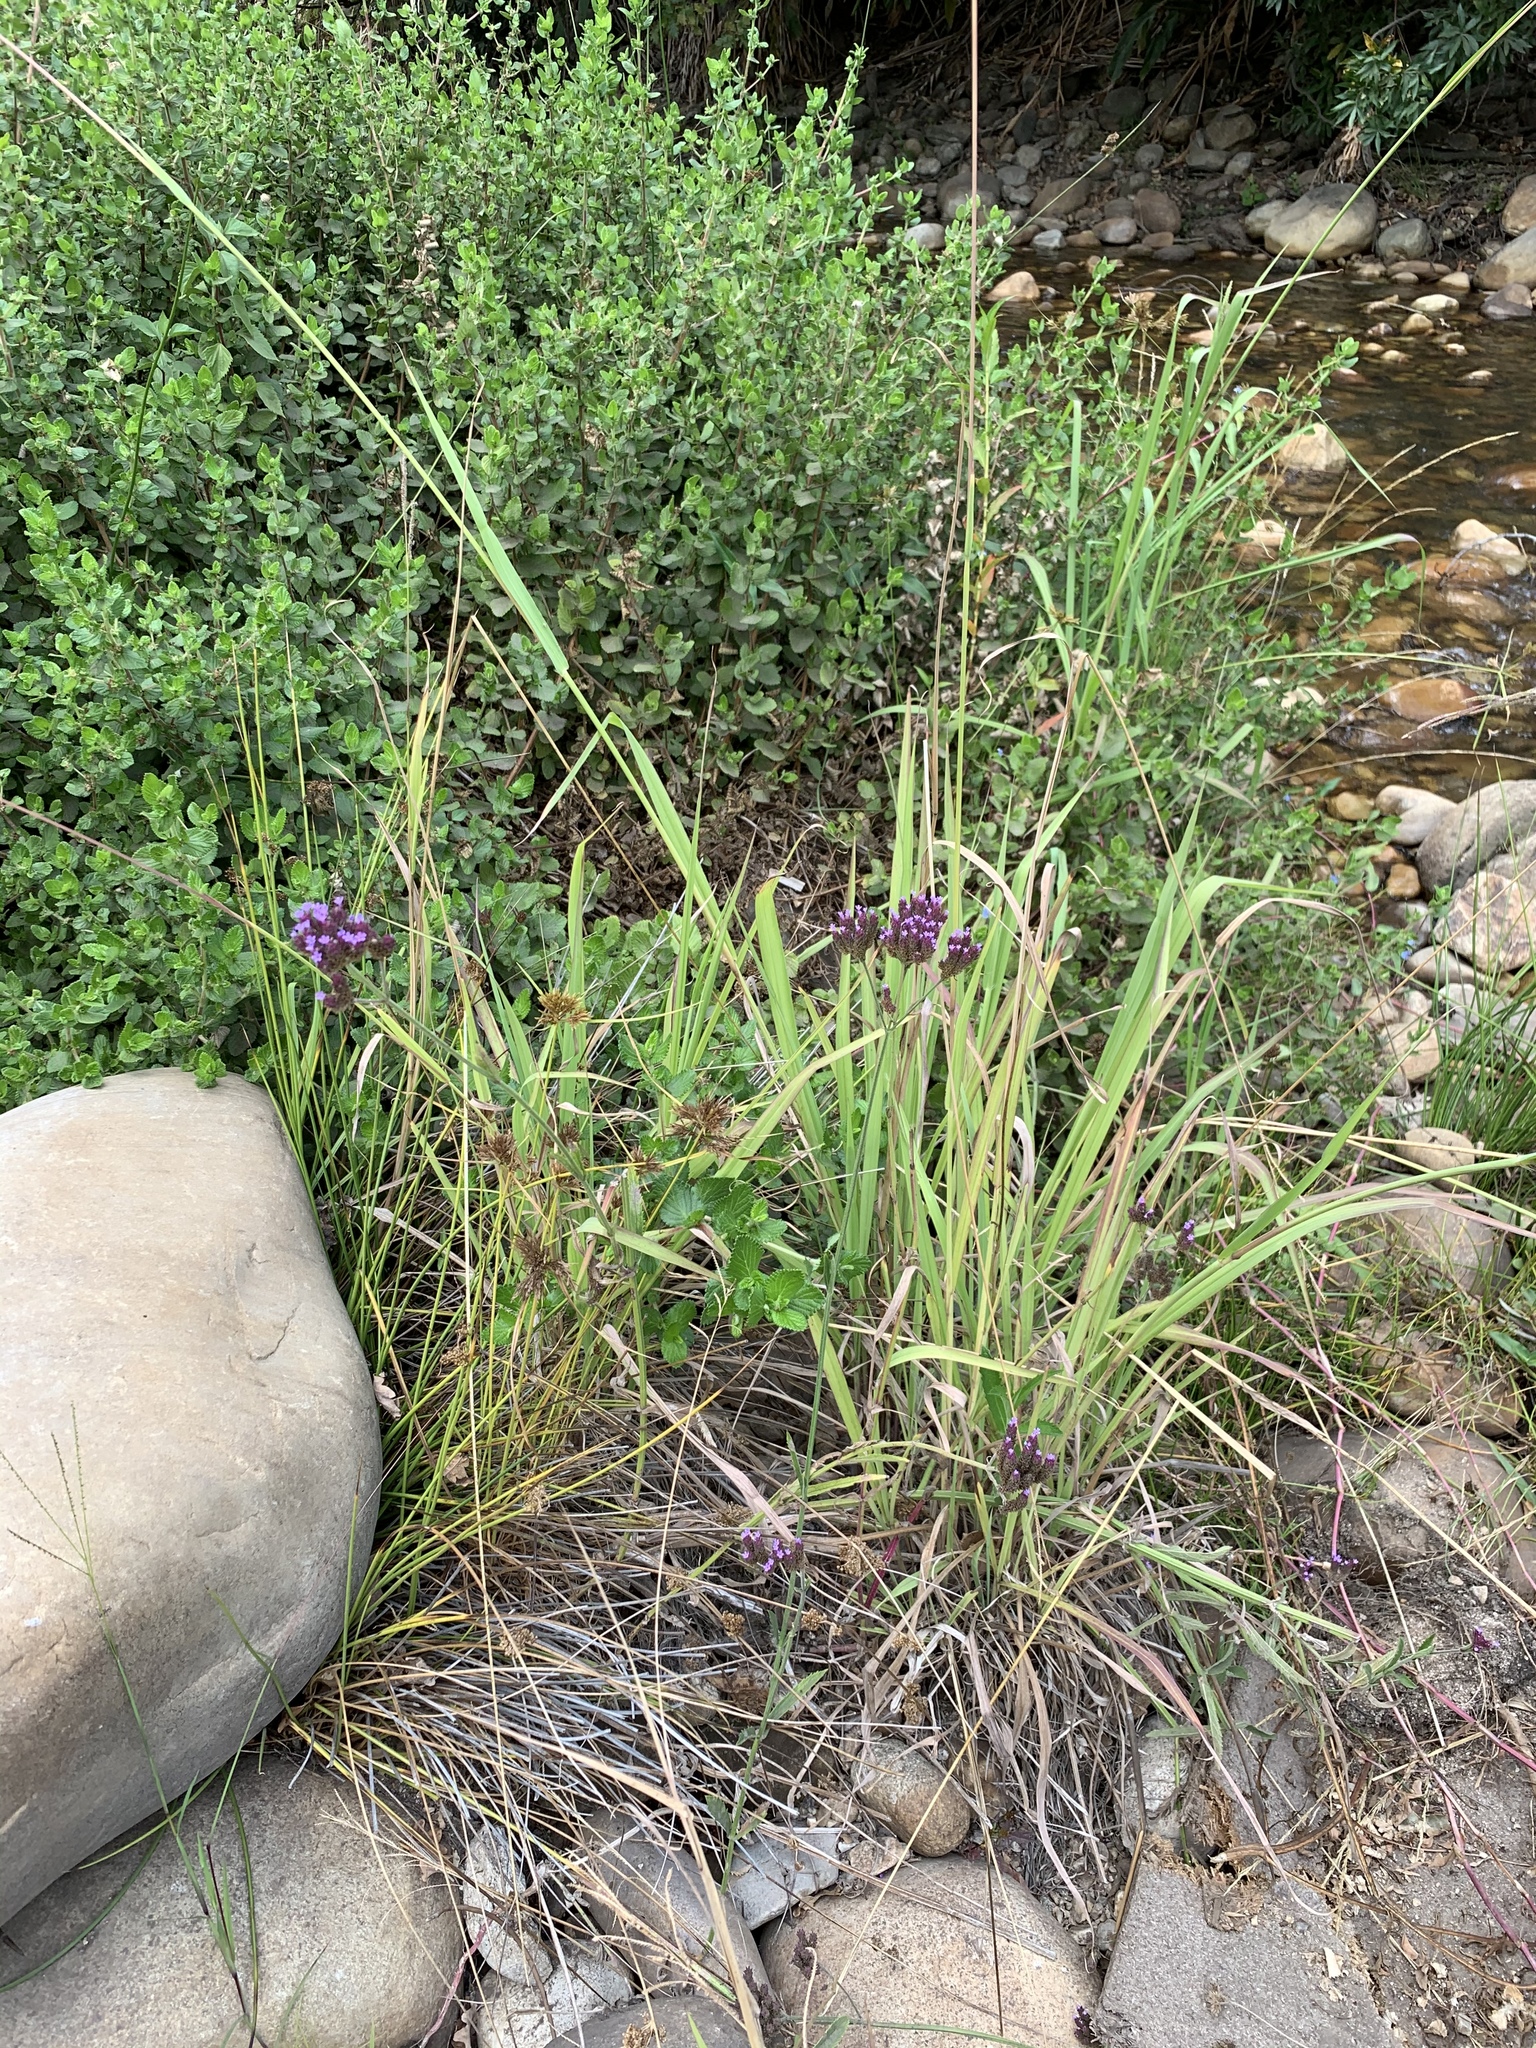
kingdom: Plantae
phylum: Tracheophyta
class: Magnoliopsida
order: Lamiales
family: Verbenaceae
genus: Verbena
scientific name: Verbena bonariensis
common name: Purpletop vervain
